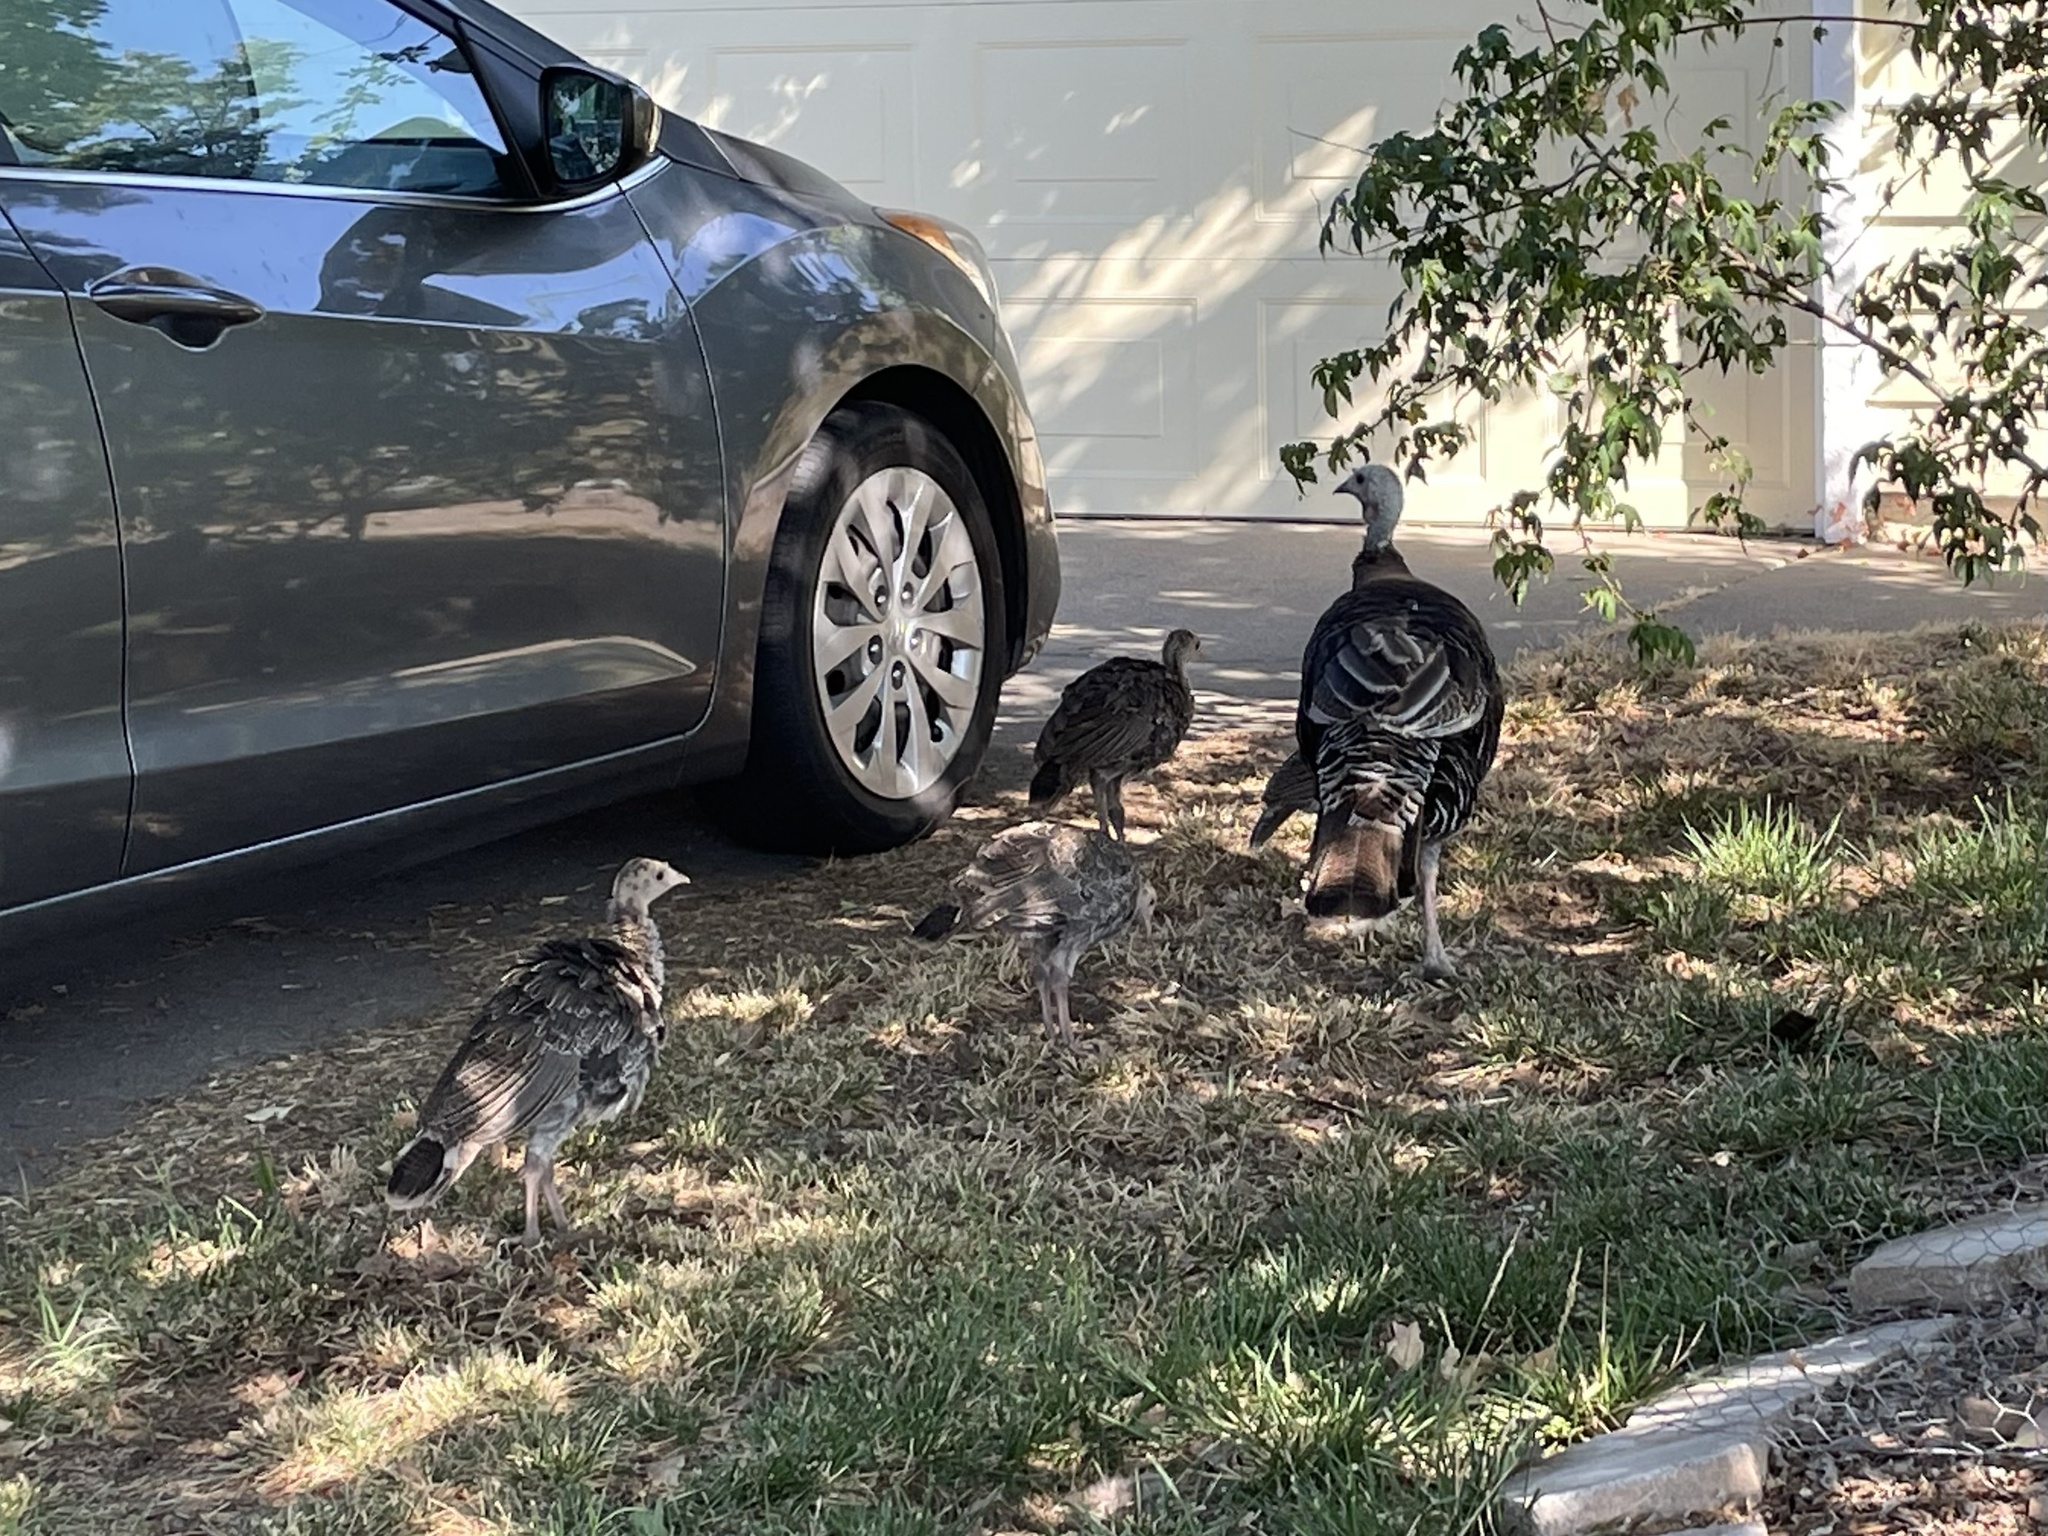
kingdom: Animalia
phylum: Chordata
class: Aves
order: Galliformes
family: Phasianidae
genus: Meleagris
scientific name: Meleagris gallopavo
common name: Wild turkey
